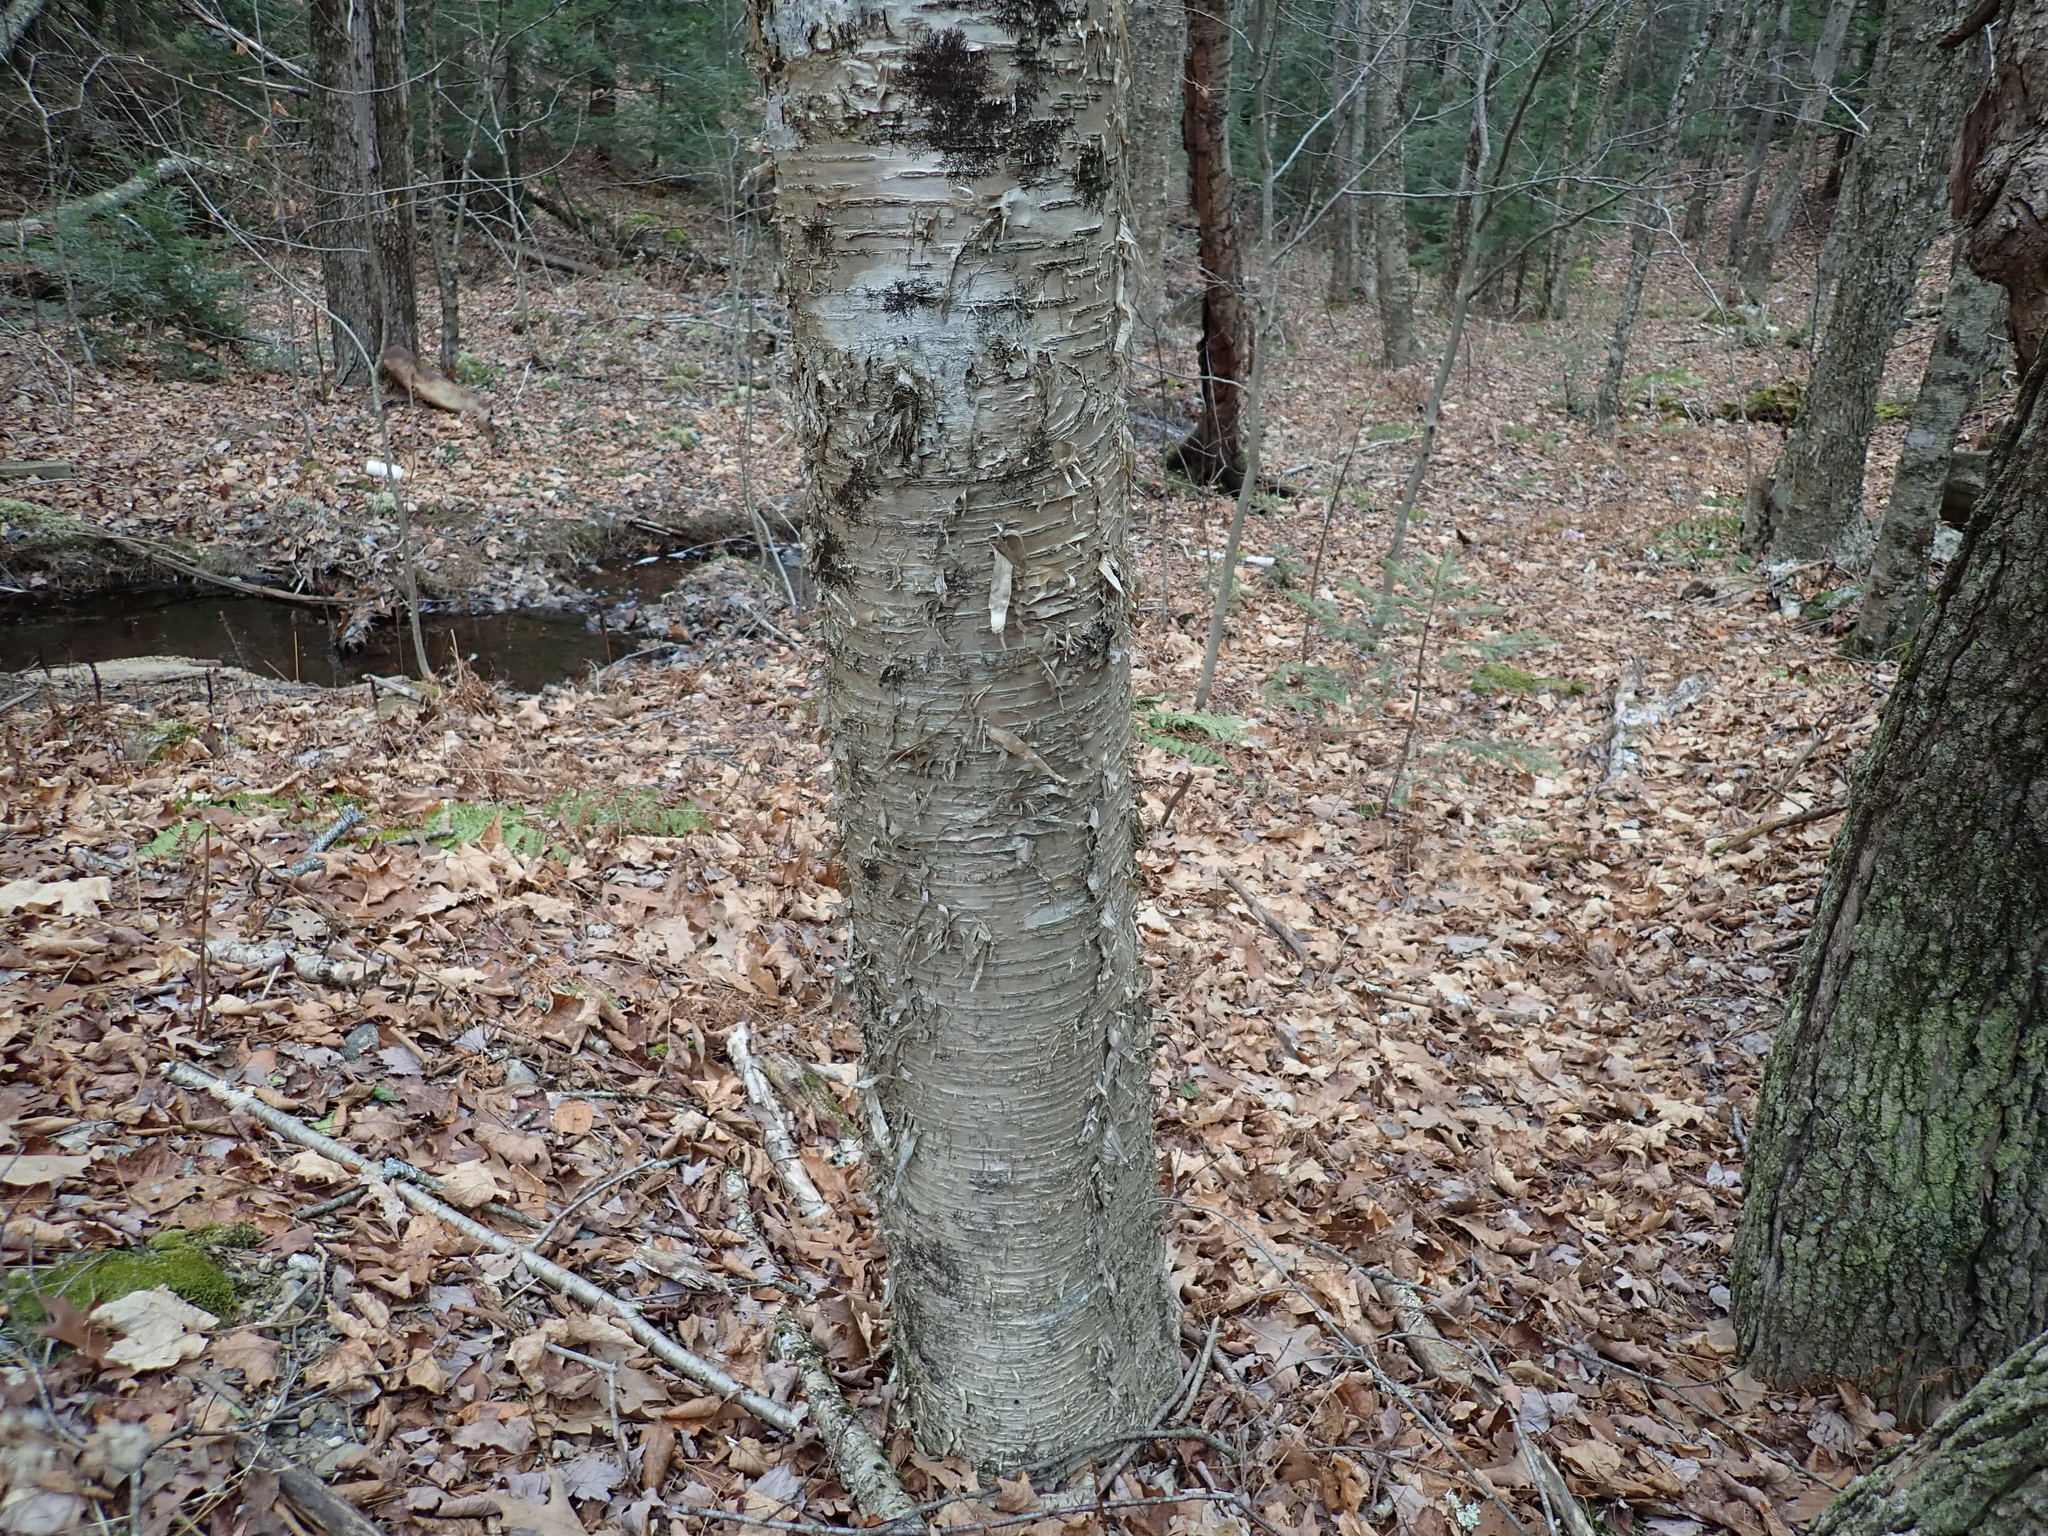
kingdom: Plantae
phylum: Tracheophyta
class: Magnoliopsida
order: Fagales
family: Betulaceae
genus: Betula
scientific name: Betula alleghaniensis
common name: Yellow birch
